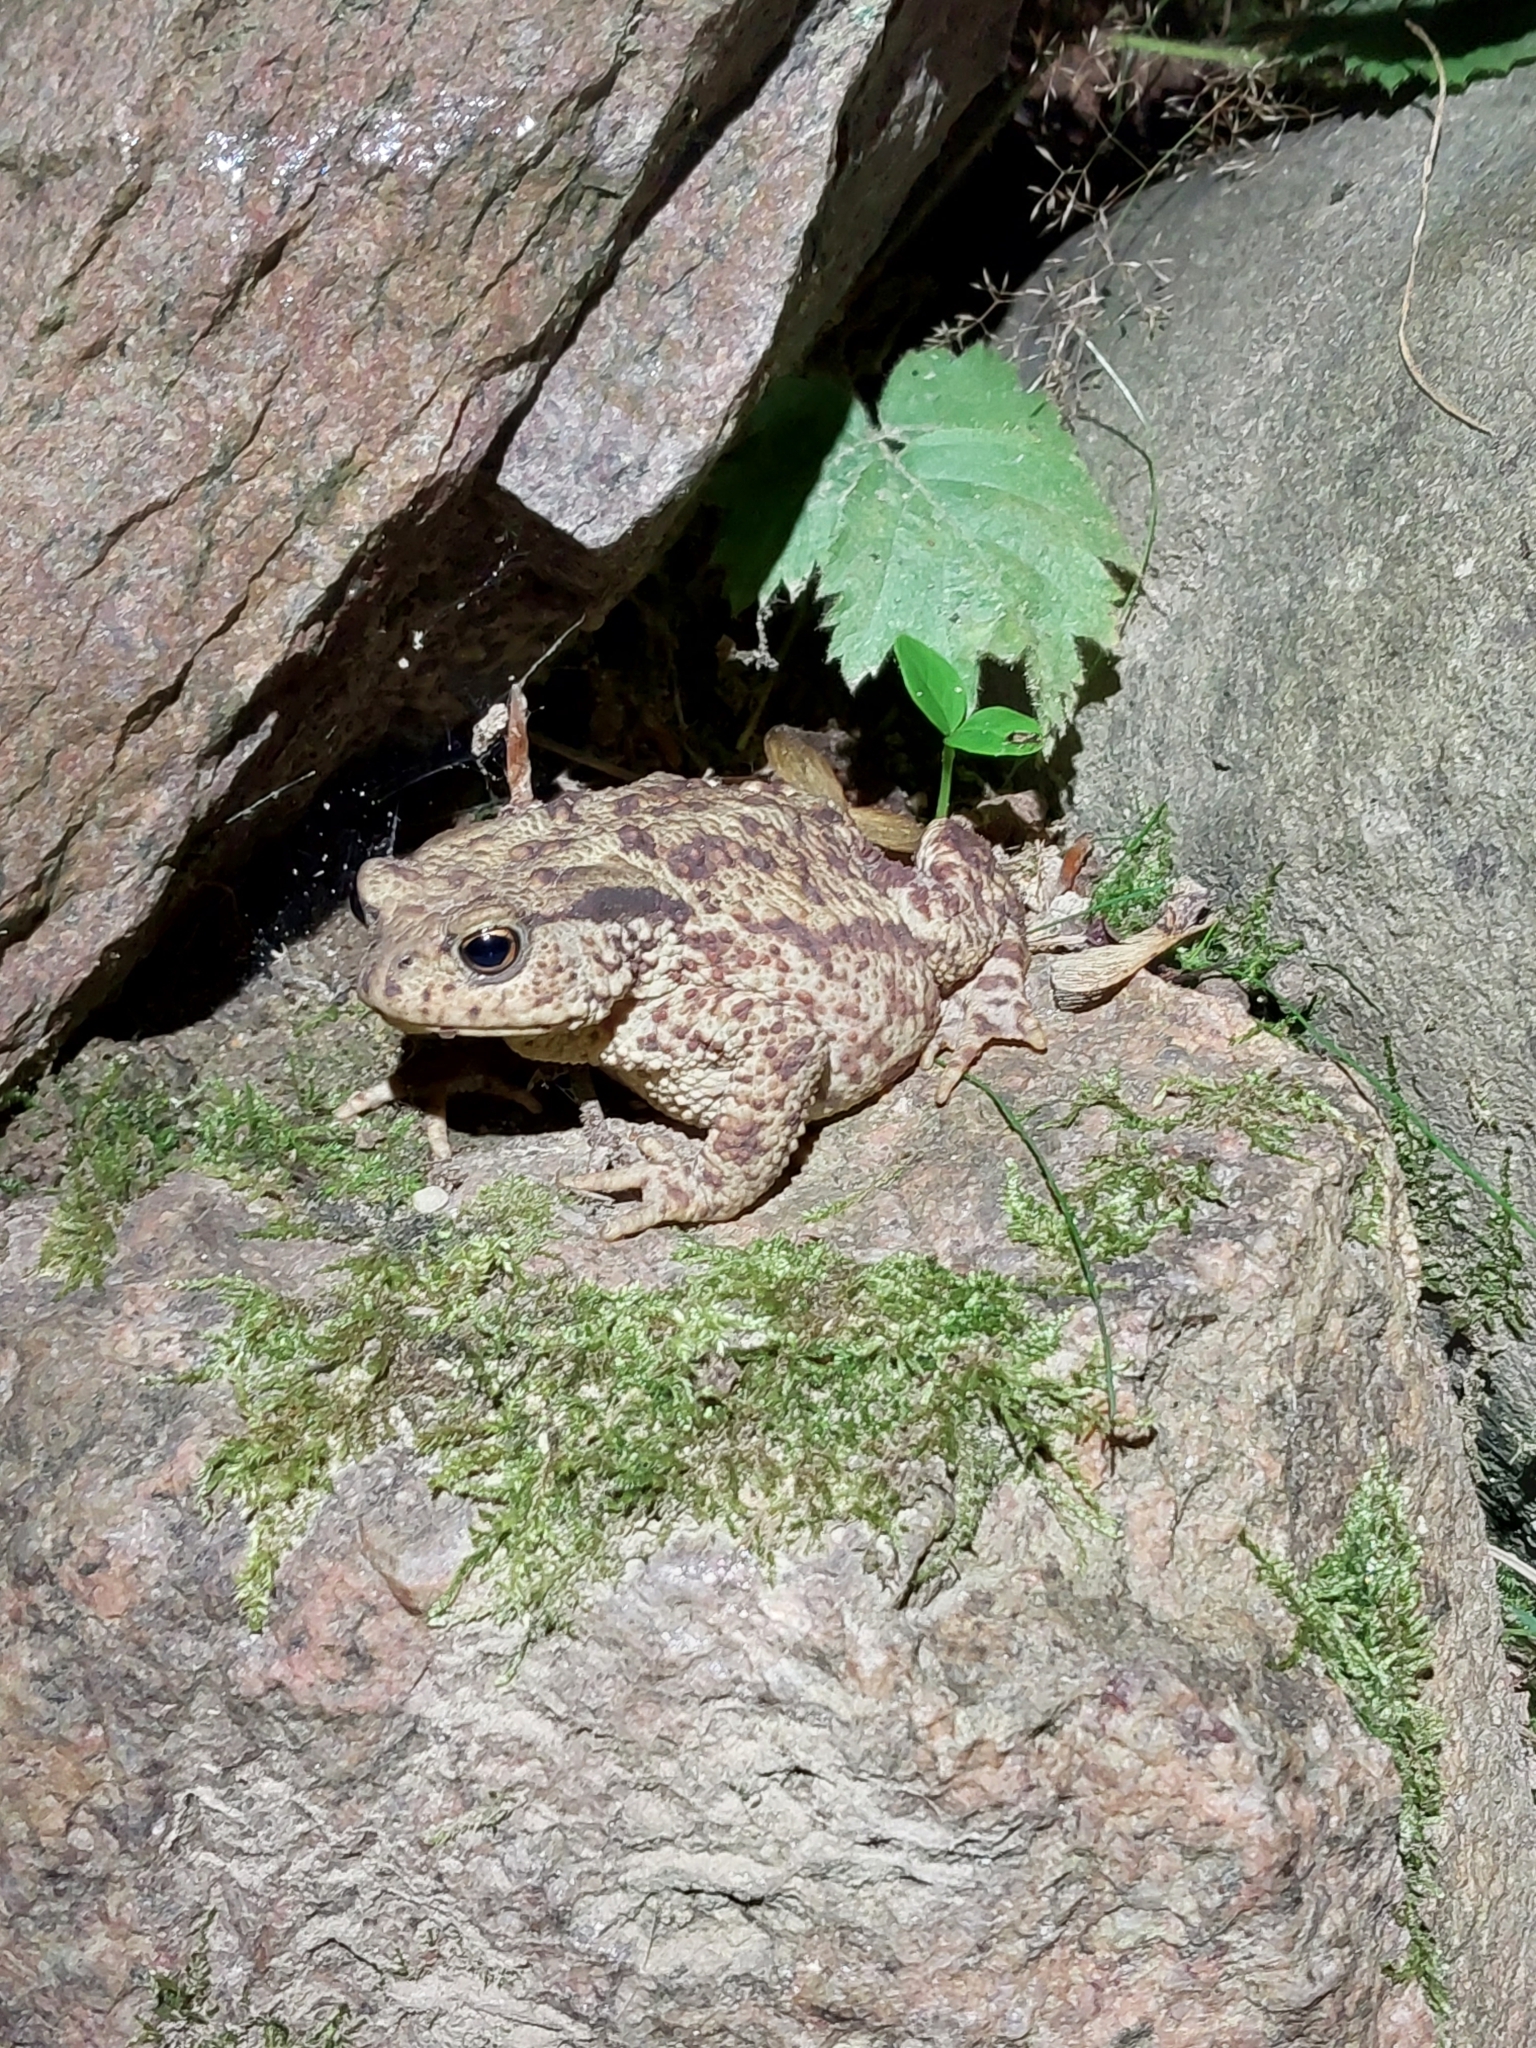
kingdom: Animalia
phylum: Chordata
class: Amphibia
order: Anura
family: Bufonidae
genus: Bufo
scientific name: Bufo bufo
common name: Common toad
